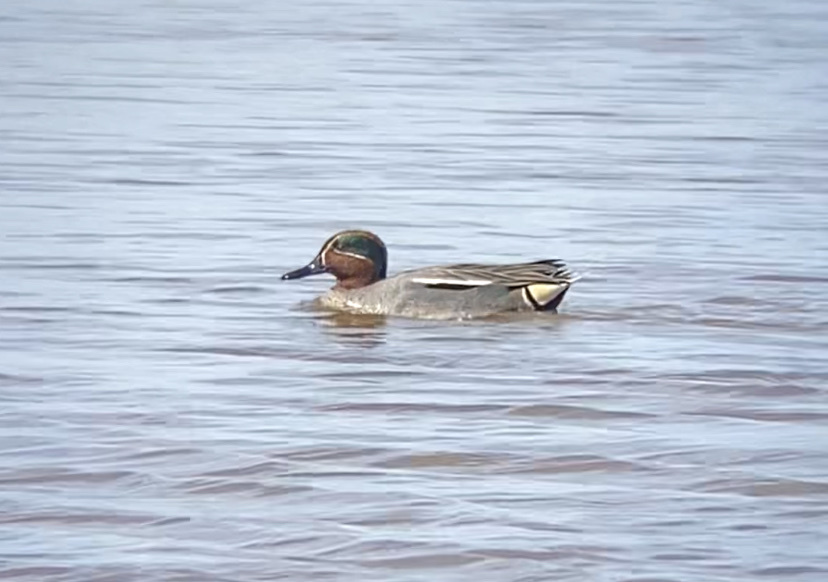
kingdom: Animalia
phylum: Chordata
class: Aves
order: Anseriformes
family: Anatidae
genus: Anas
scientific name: Anas crecca
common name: Eurasian teal
